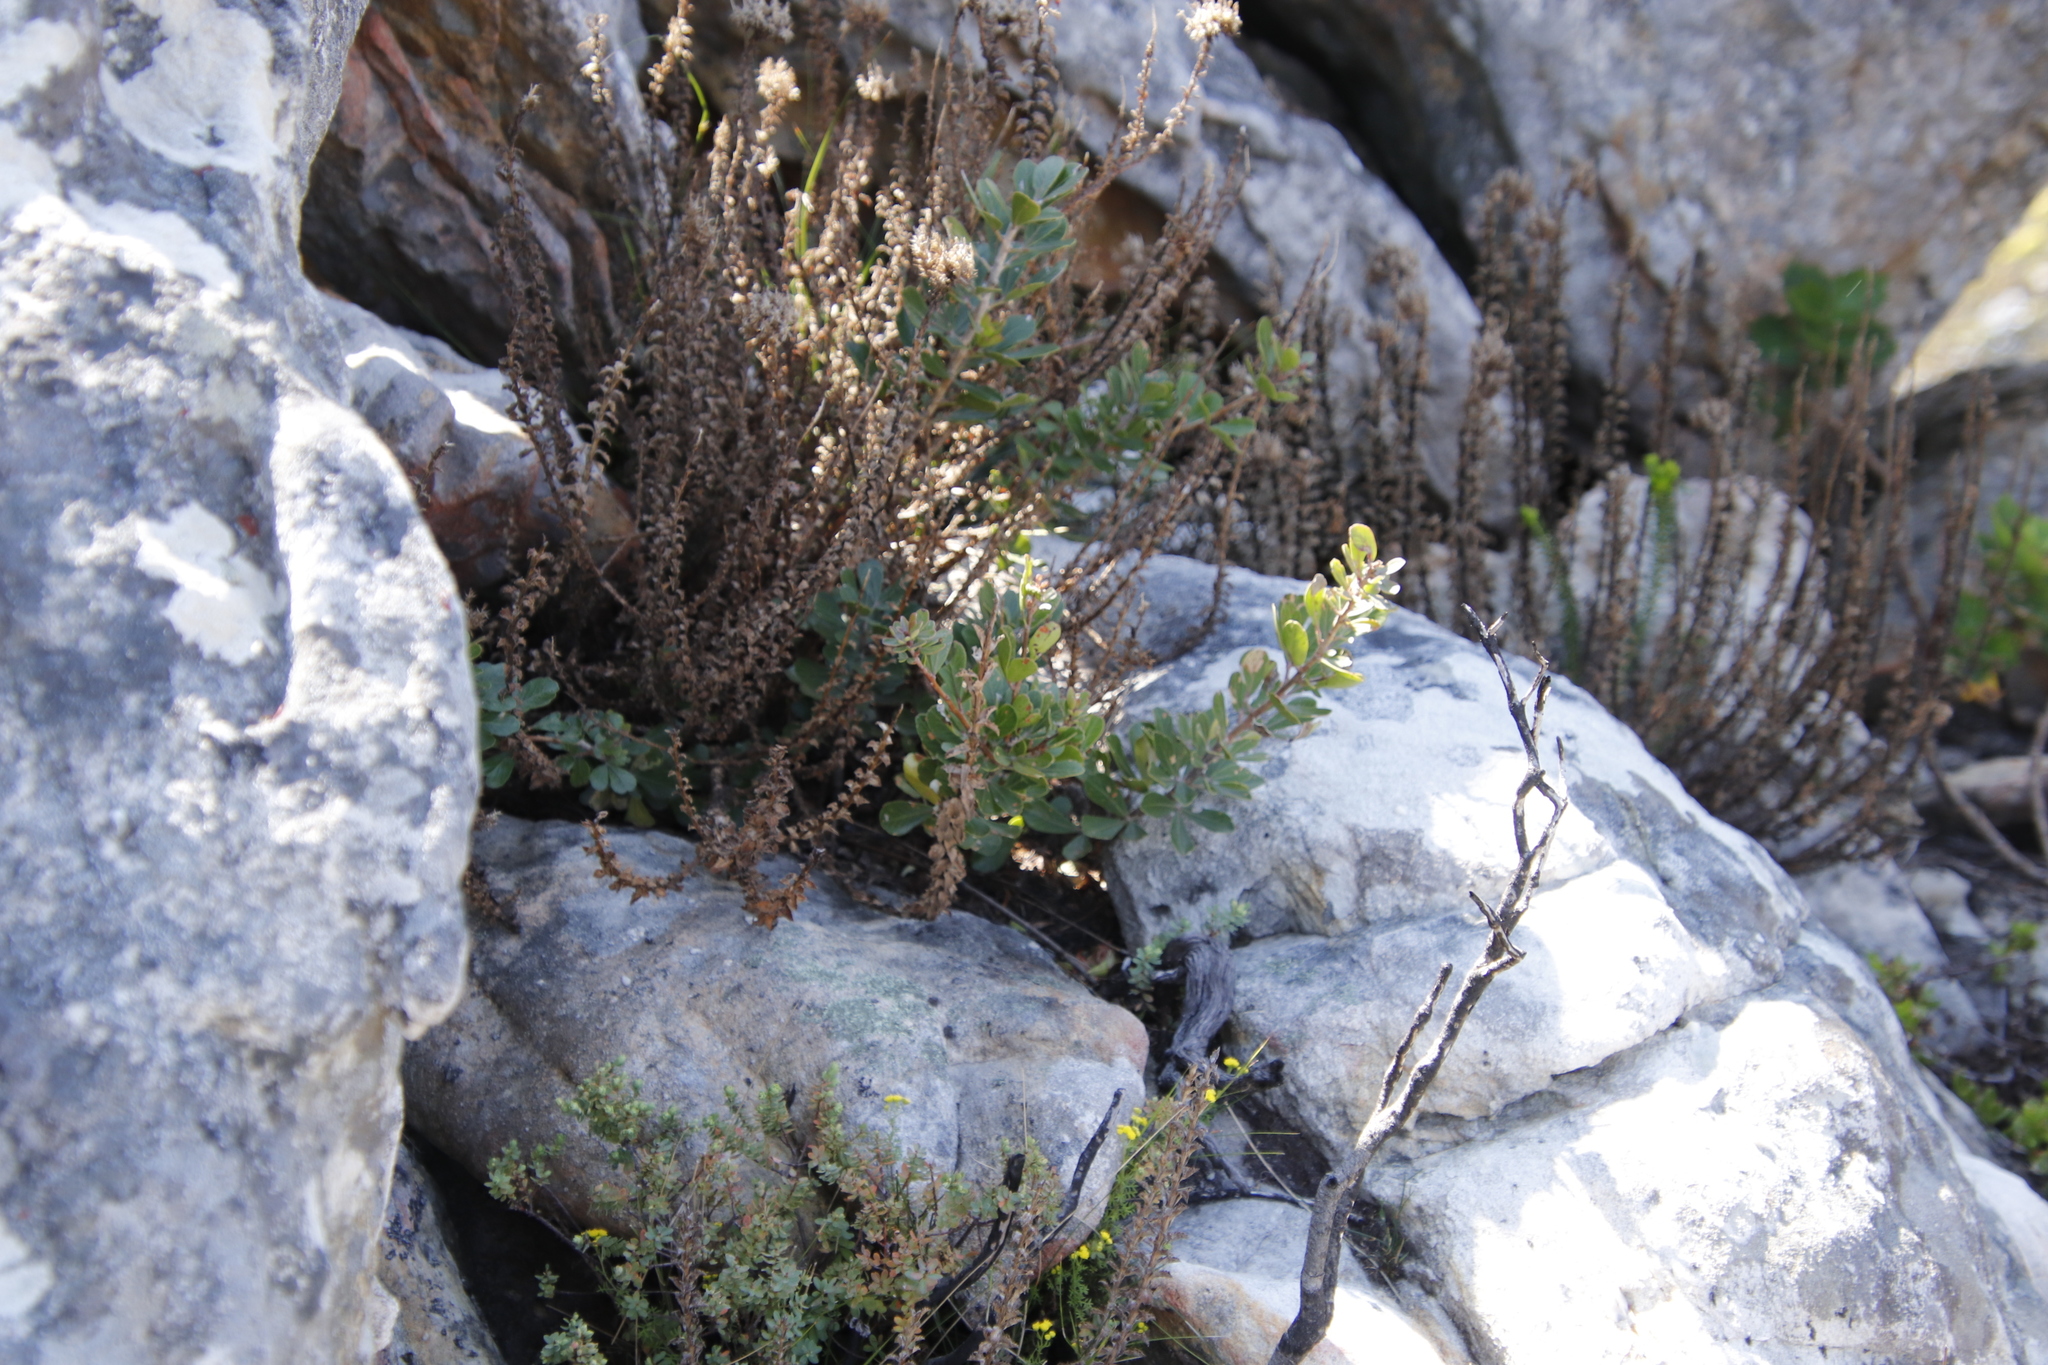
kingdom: Plantae
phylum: Tracheophyta
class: Magnoliopsida
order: Sapindales
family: Anacardiaceae
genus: Searsia
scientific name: Searsia scytophylla
